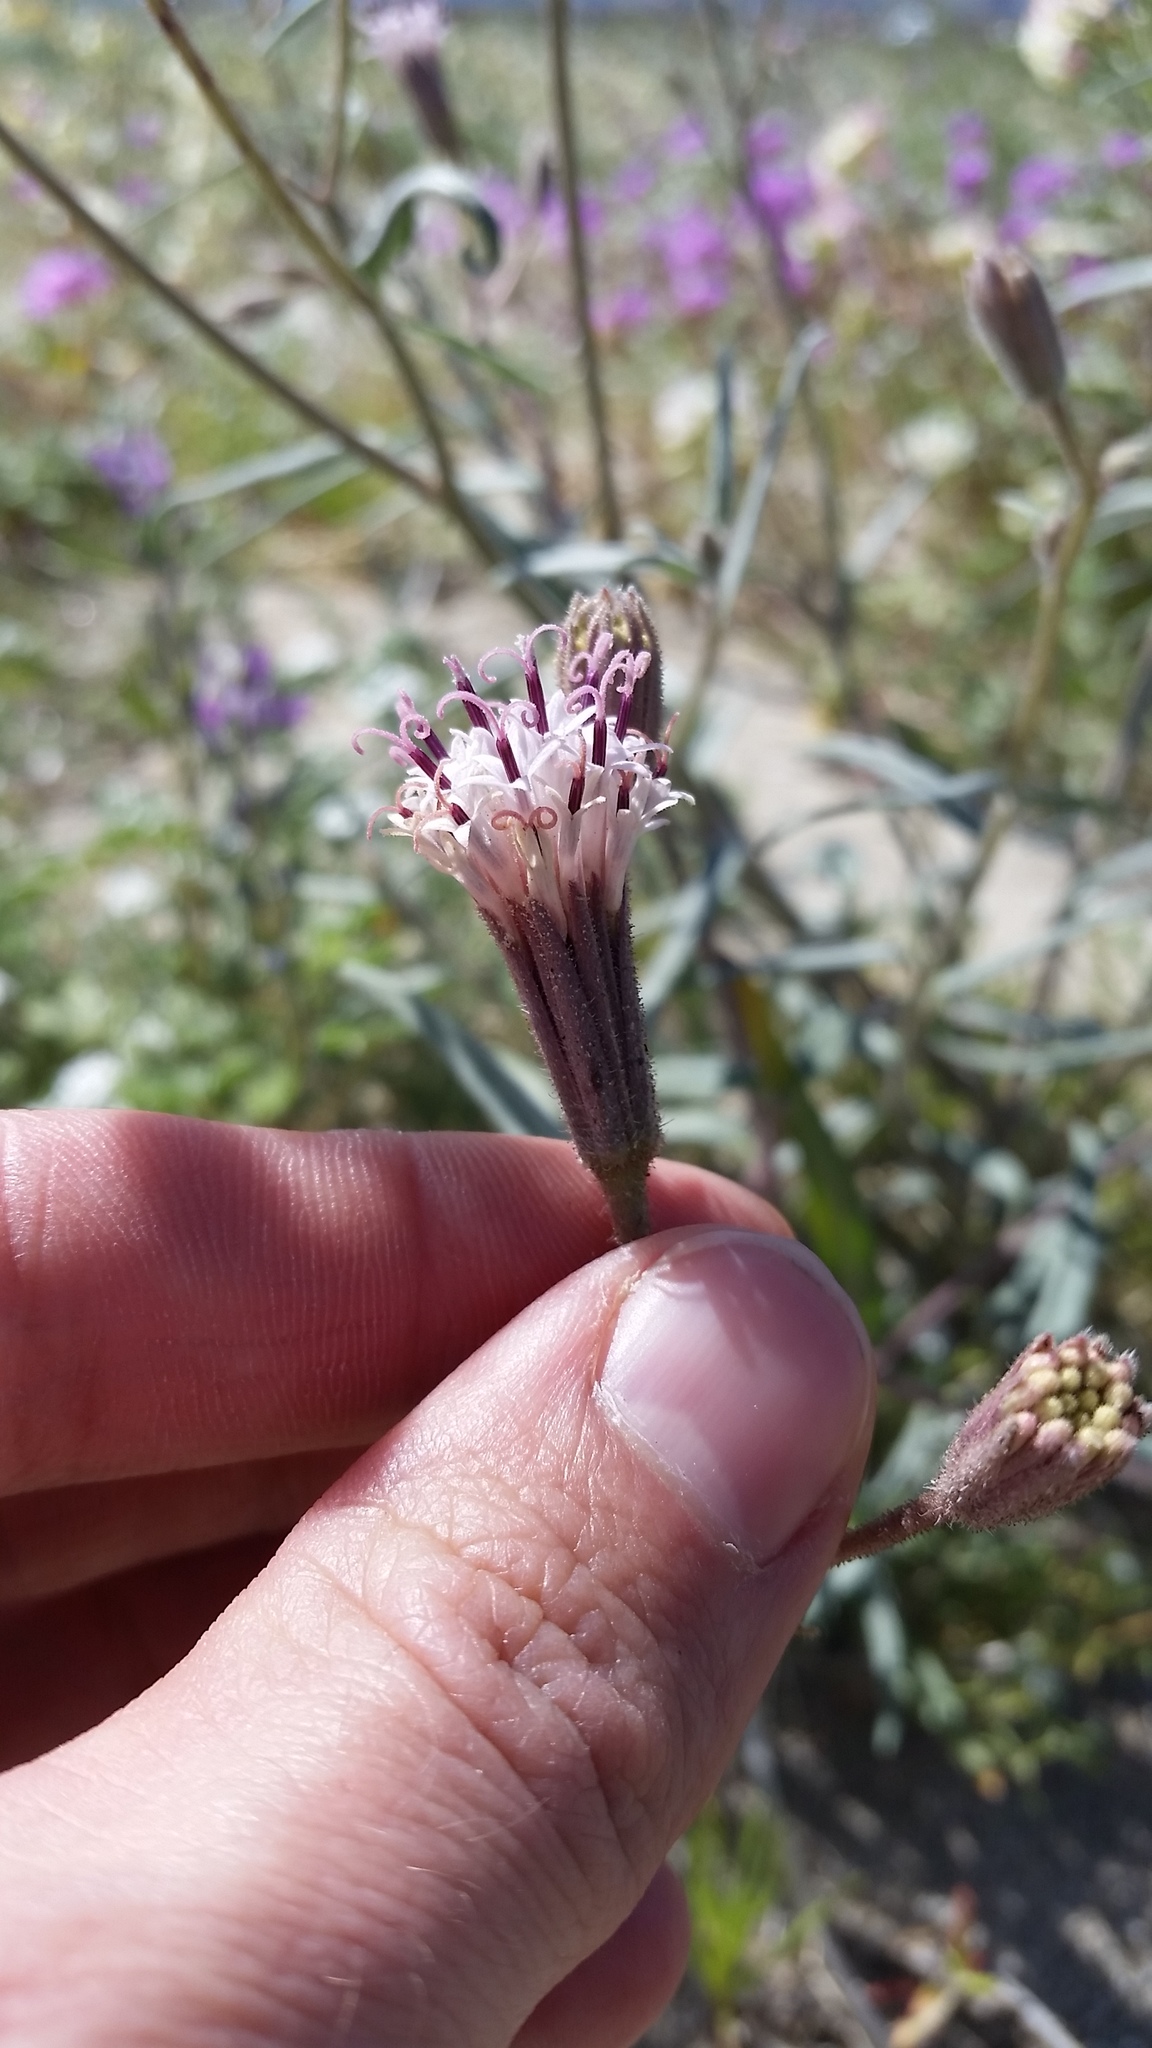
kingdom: Plantae
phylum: Tracheophyta
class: Magnoliopsida
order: Asterales
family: Asteraceae
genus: Palafoxia
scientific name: Palafoxia arida
